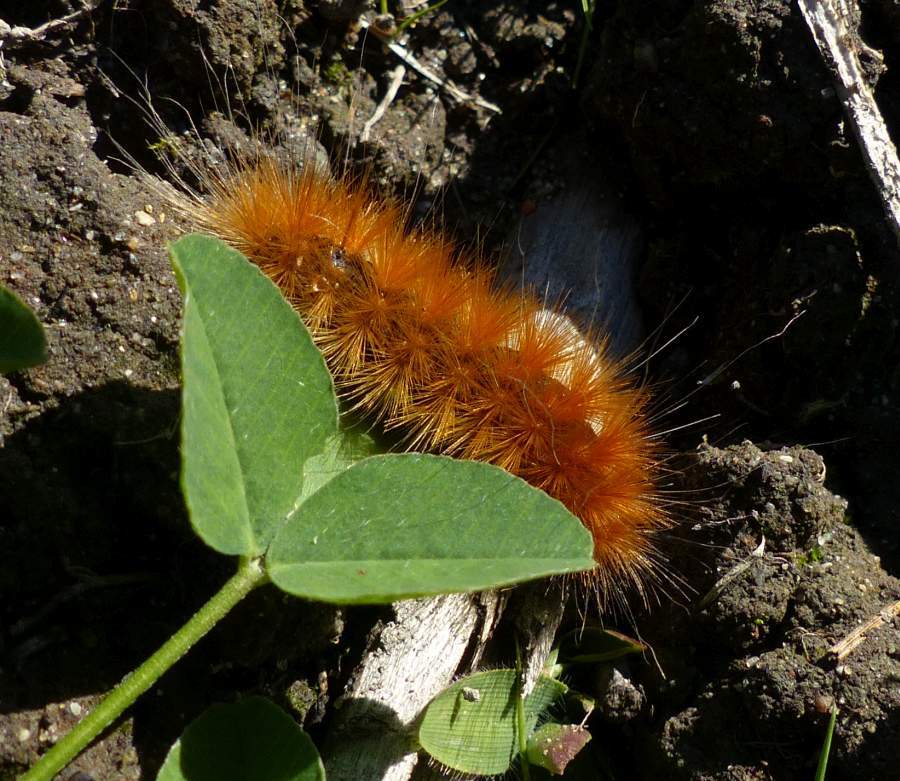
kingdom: Animalia
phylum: Arthropoda
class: Insecta
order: Lepidoptera
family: Erebidae
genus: Spilosoma
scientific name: Spilosoma virginica
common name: Virginia tiger moth
